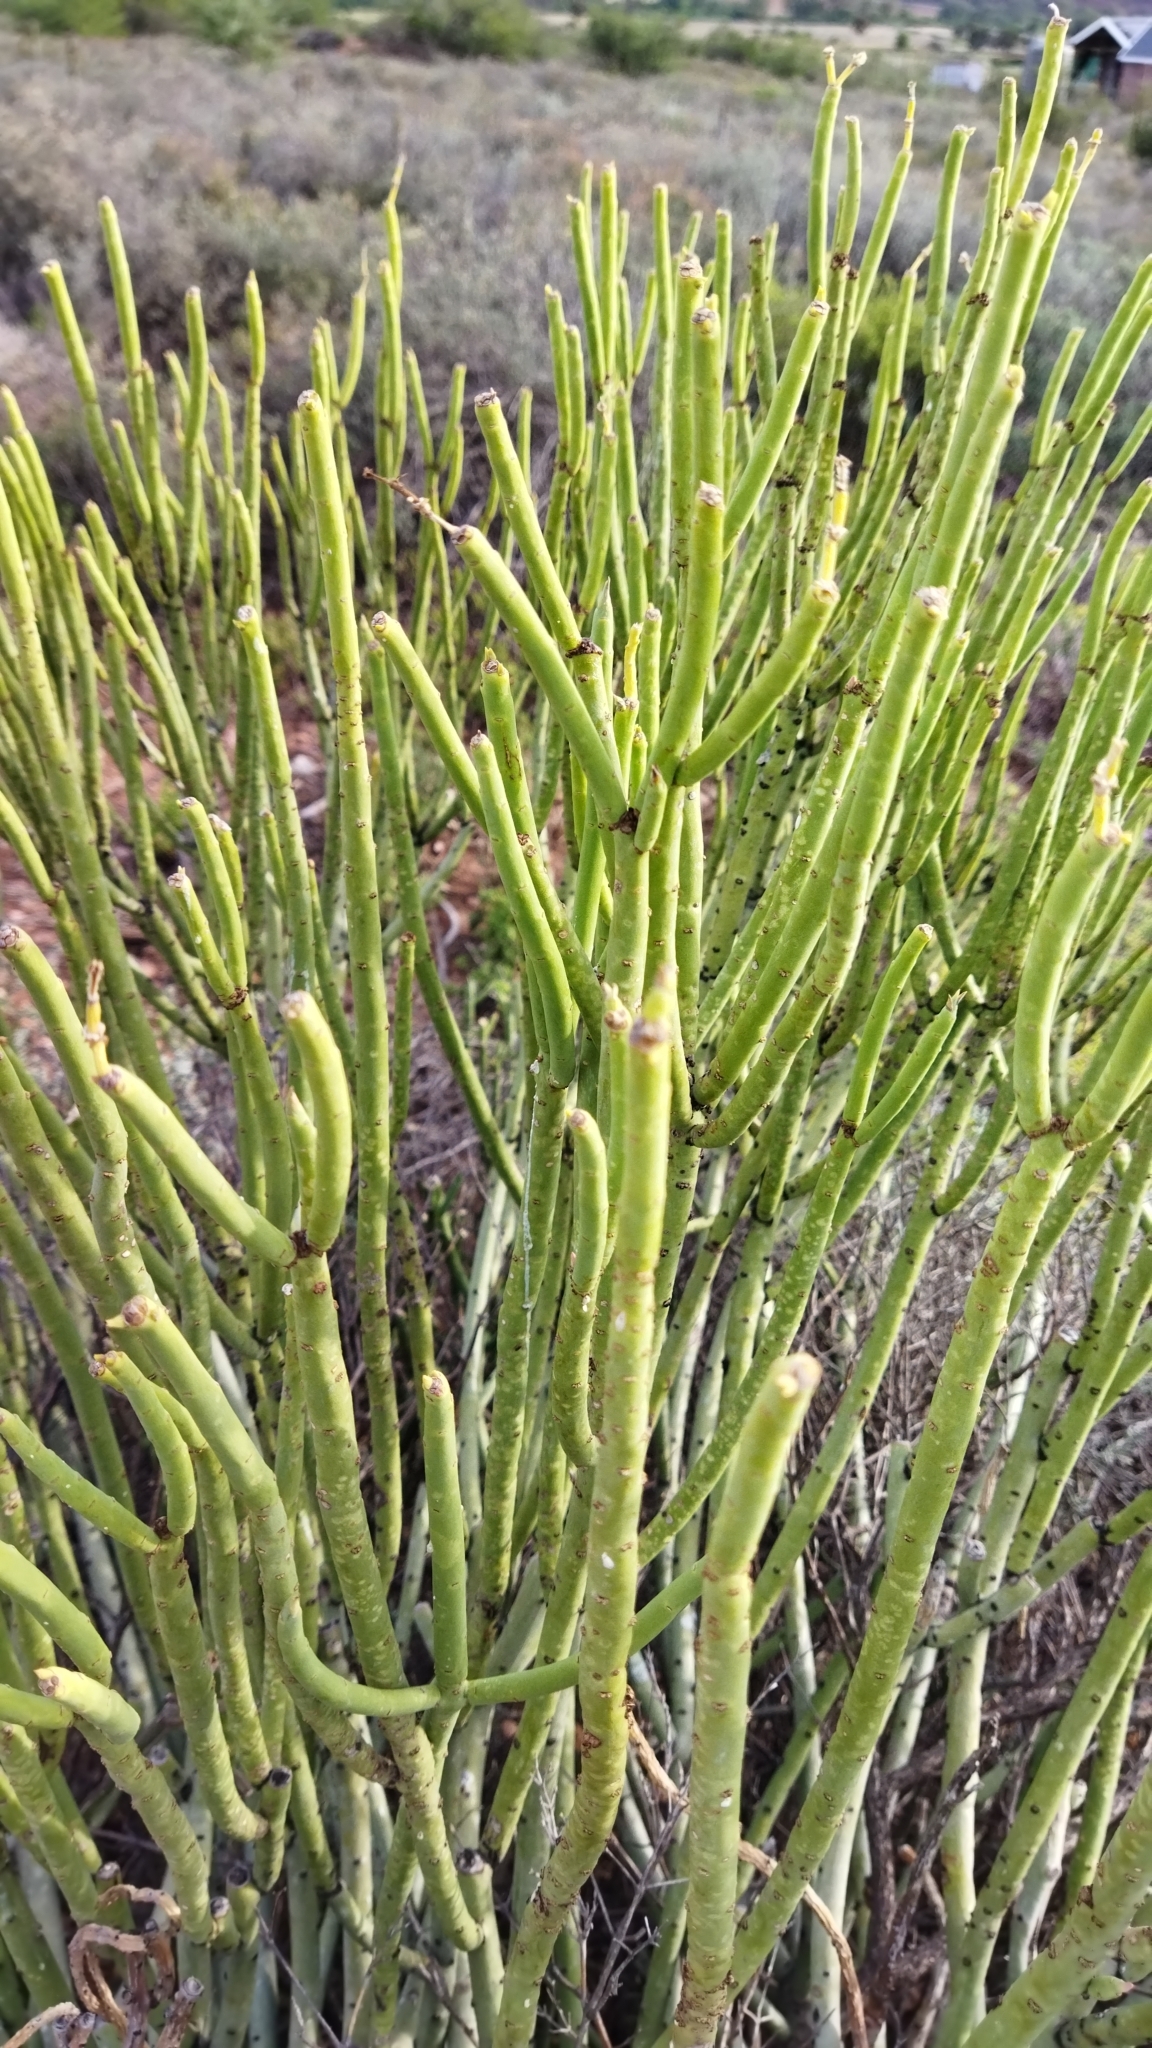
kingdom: Plantae
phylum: Tracheophyta
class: Magnoliopsida
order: Malpighiales
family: Euphorbiaceae
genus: Euphorbia
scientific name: Euphorbia mauritanica
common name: Jackal's-food
